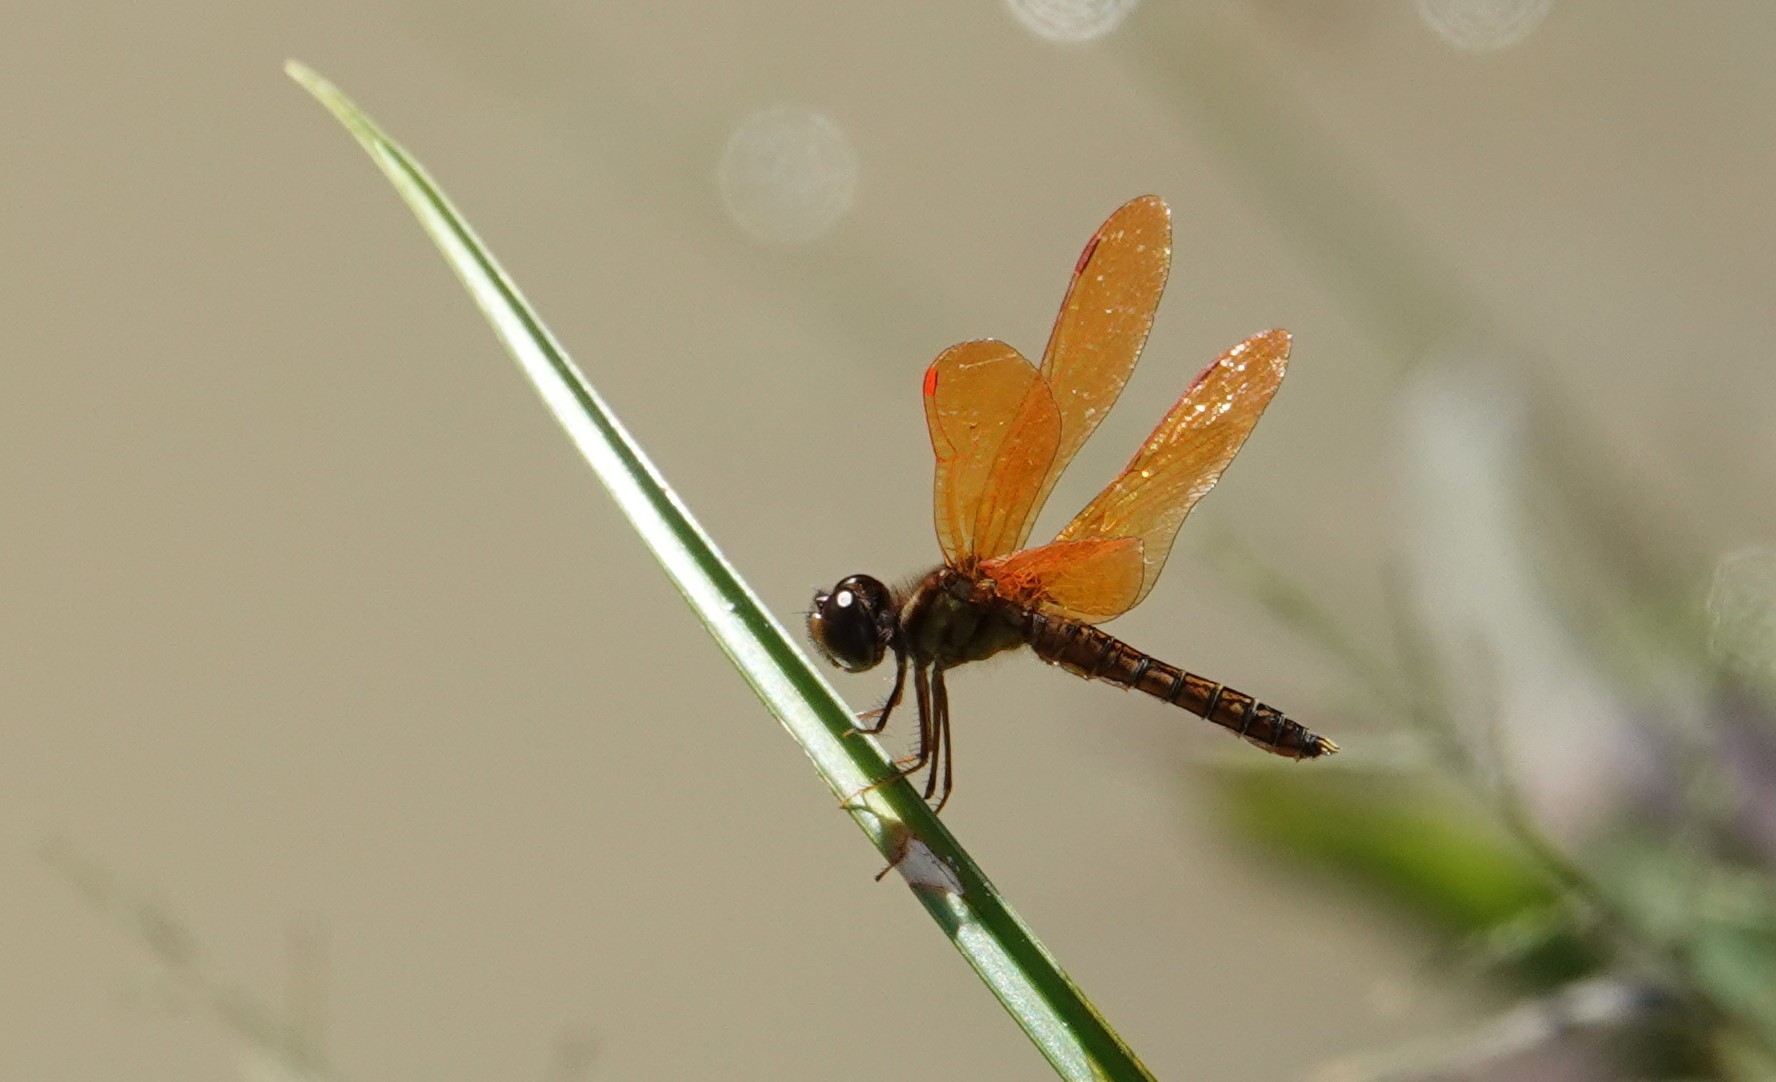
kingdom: Animalia
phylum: Arthropoda
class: Insecta
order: Odonata
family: Libellulidae
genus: Perithemis
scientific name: Perithemis tenera
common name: Eastern amberwing
